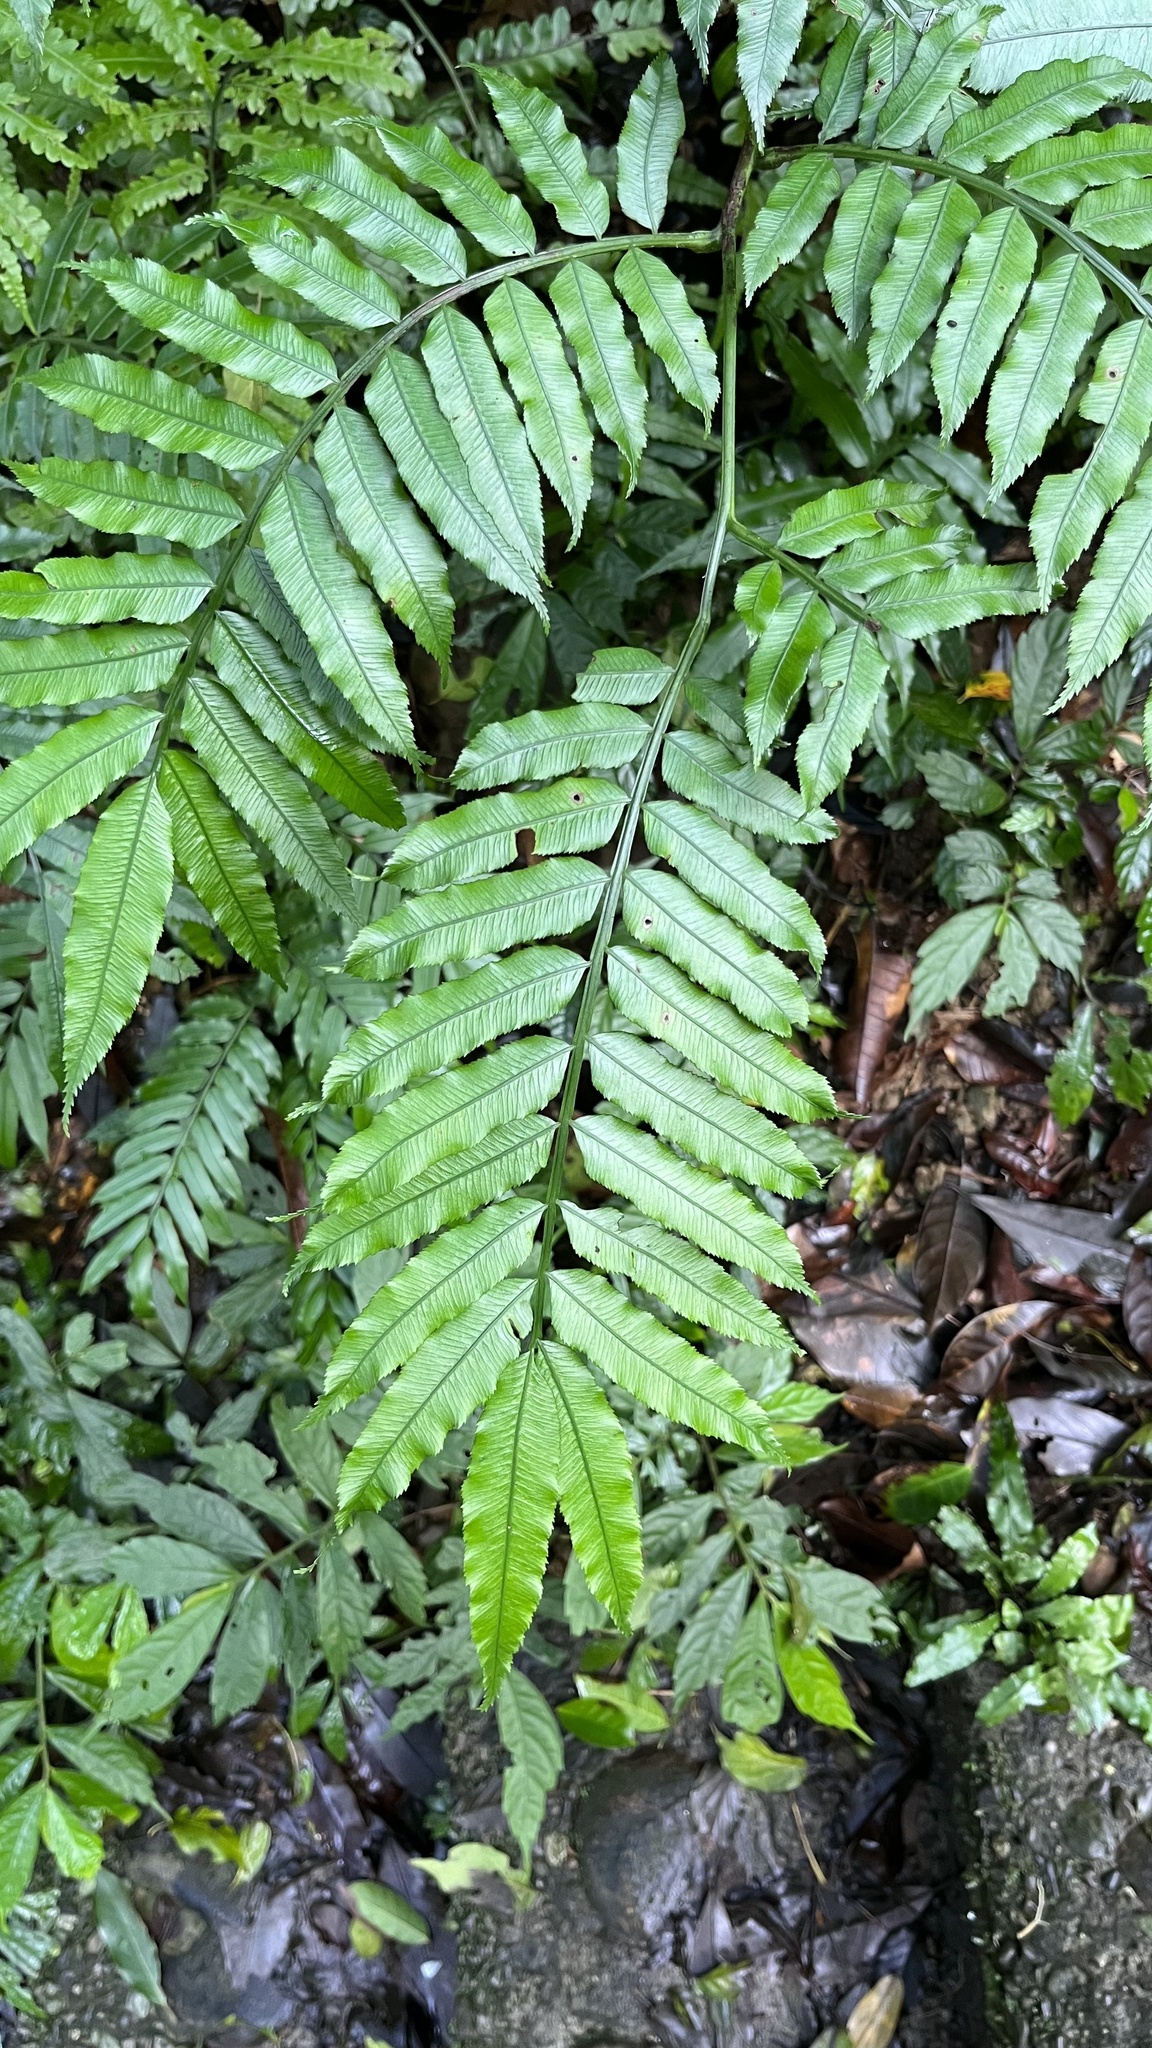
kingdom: Plantae
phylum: Tracheophyta
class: Polypodiopsida
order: Marattiales
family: Marattiaceae
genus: Angiopteris
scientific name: Angiopteris lygodiifolia
